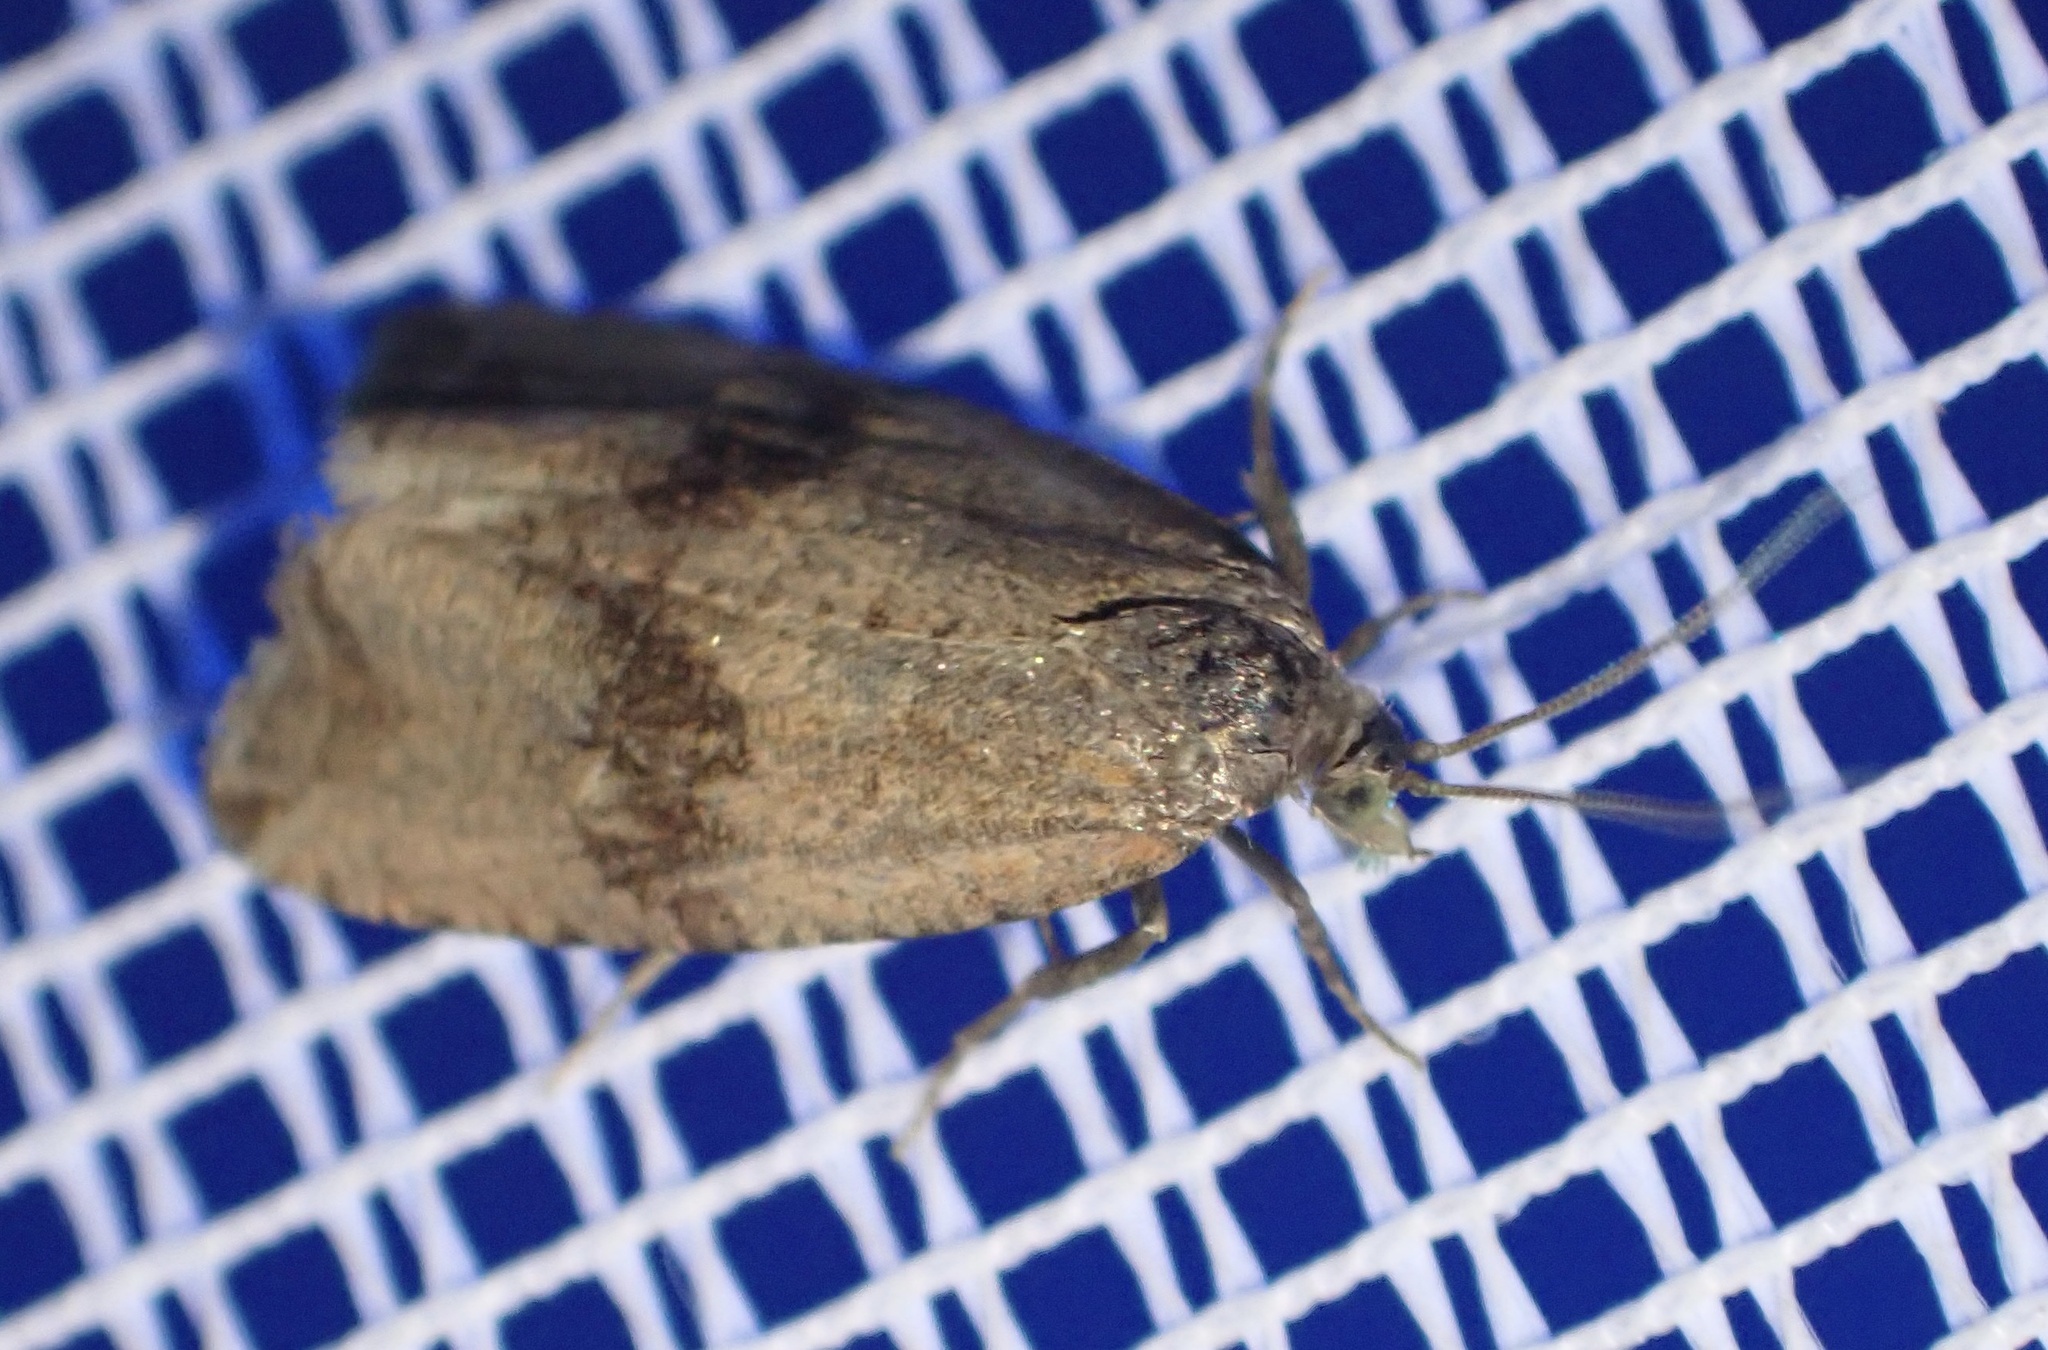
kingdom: Animalia
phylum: Arthropoda
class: Insecta
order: Lepidoptera
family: Tortricidae
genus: Celypha
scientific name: Celypha striana
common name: Barred marble
